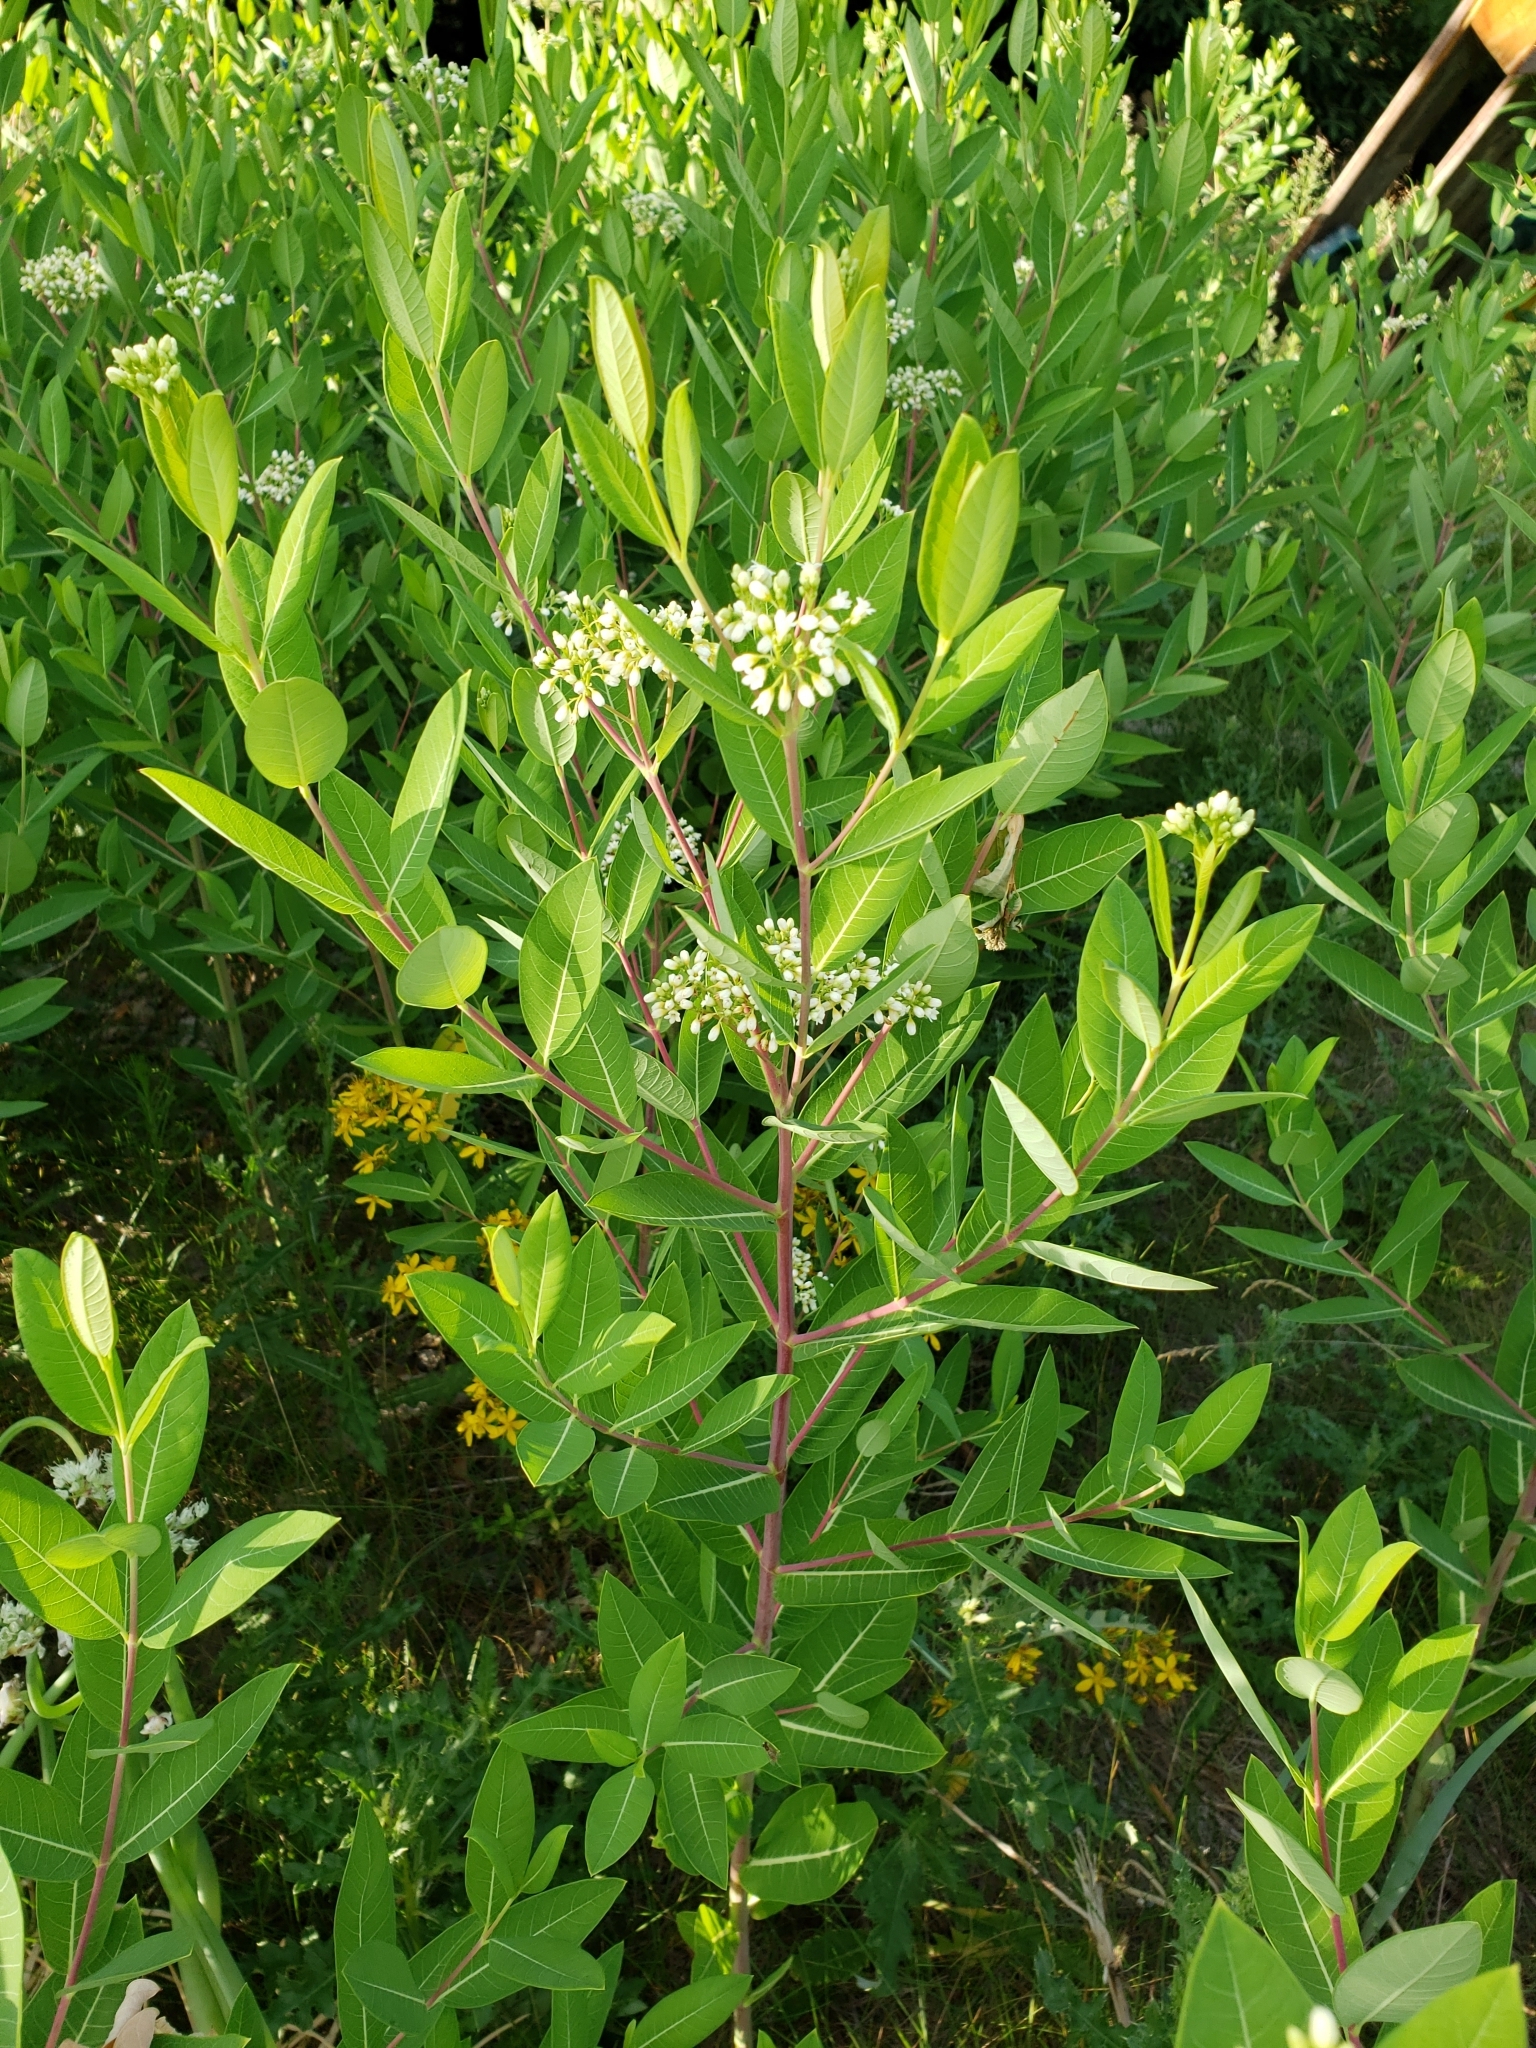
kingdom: Plantae
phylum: Tracheophyta
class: Magnoliopsida
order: Gentianales
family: Apocynaceae
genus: Apocynum
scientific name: Apocynum cannabinum
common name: Hemp dogbane
